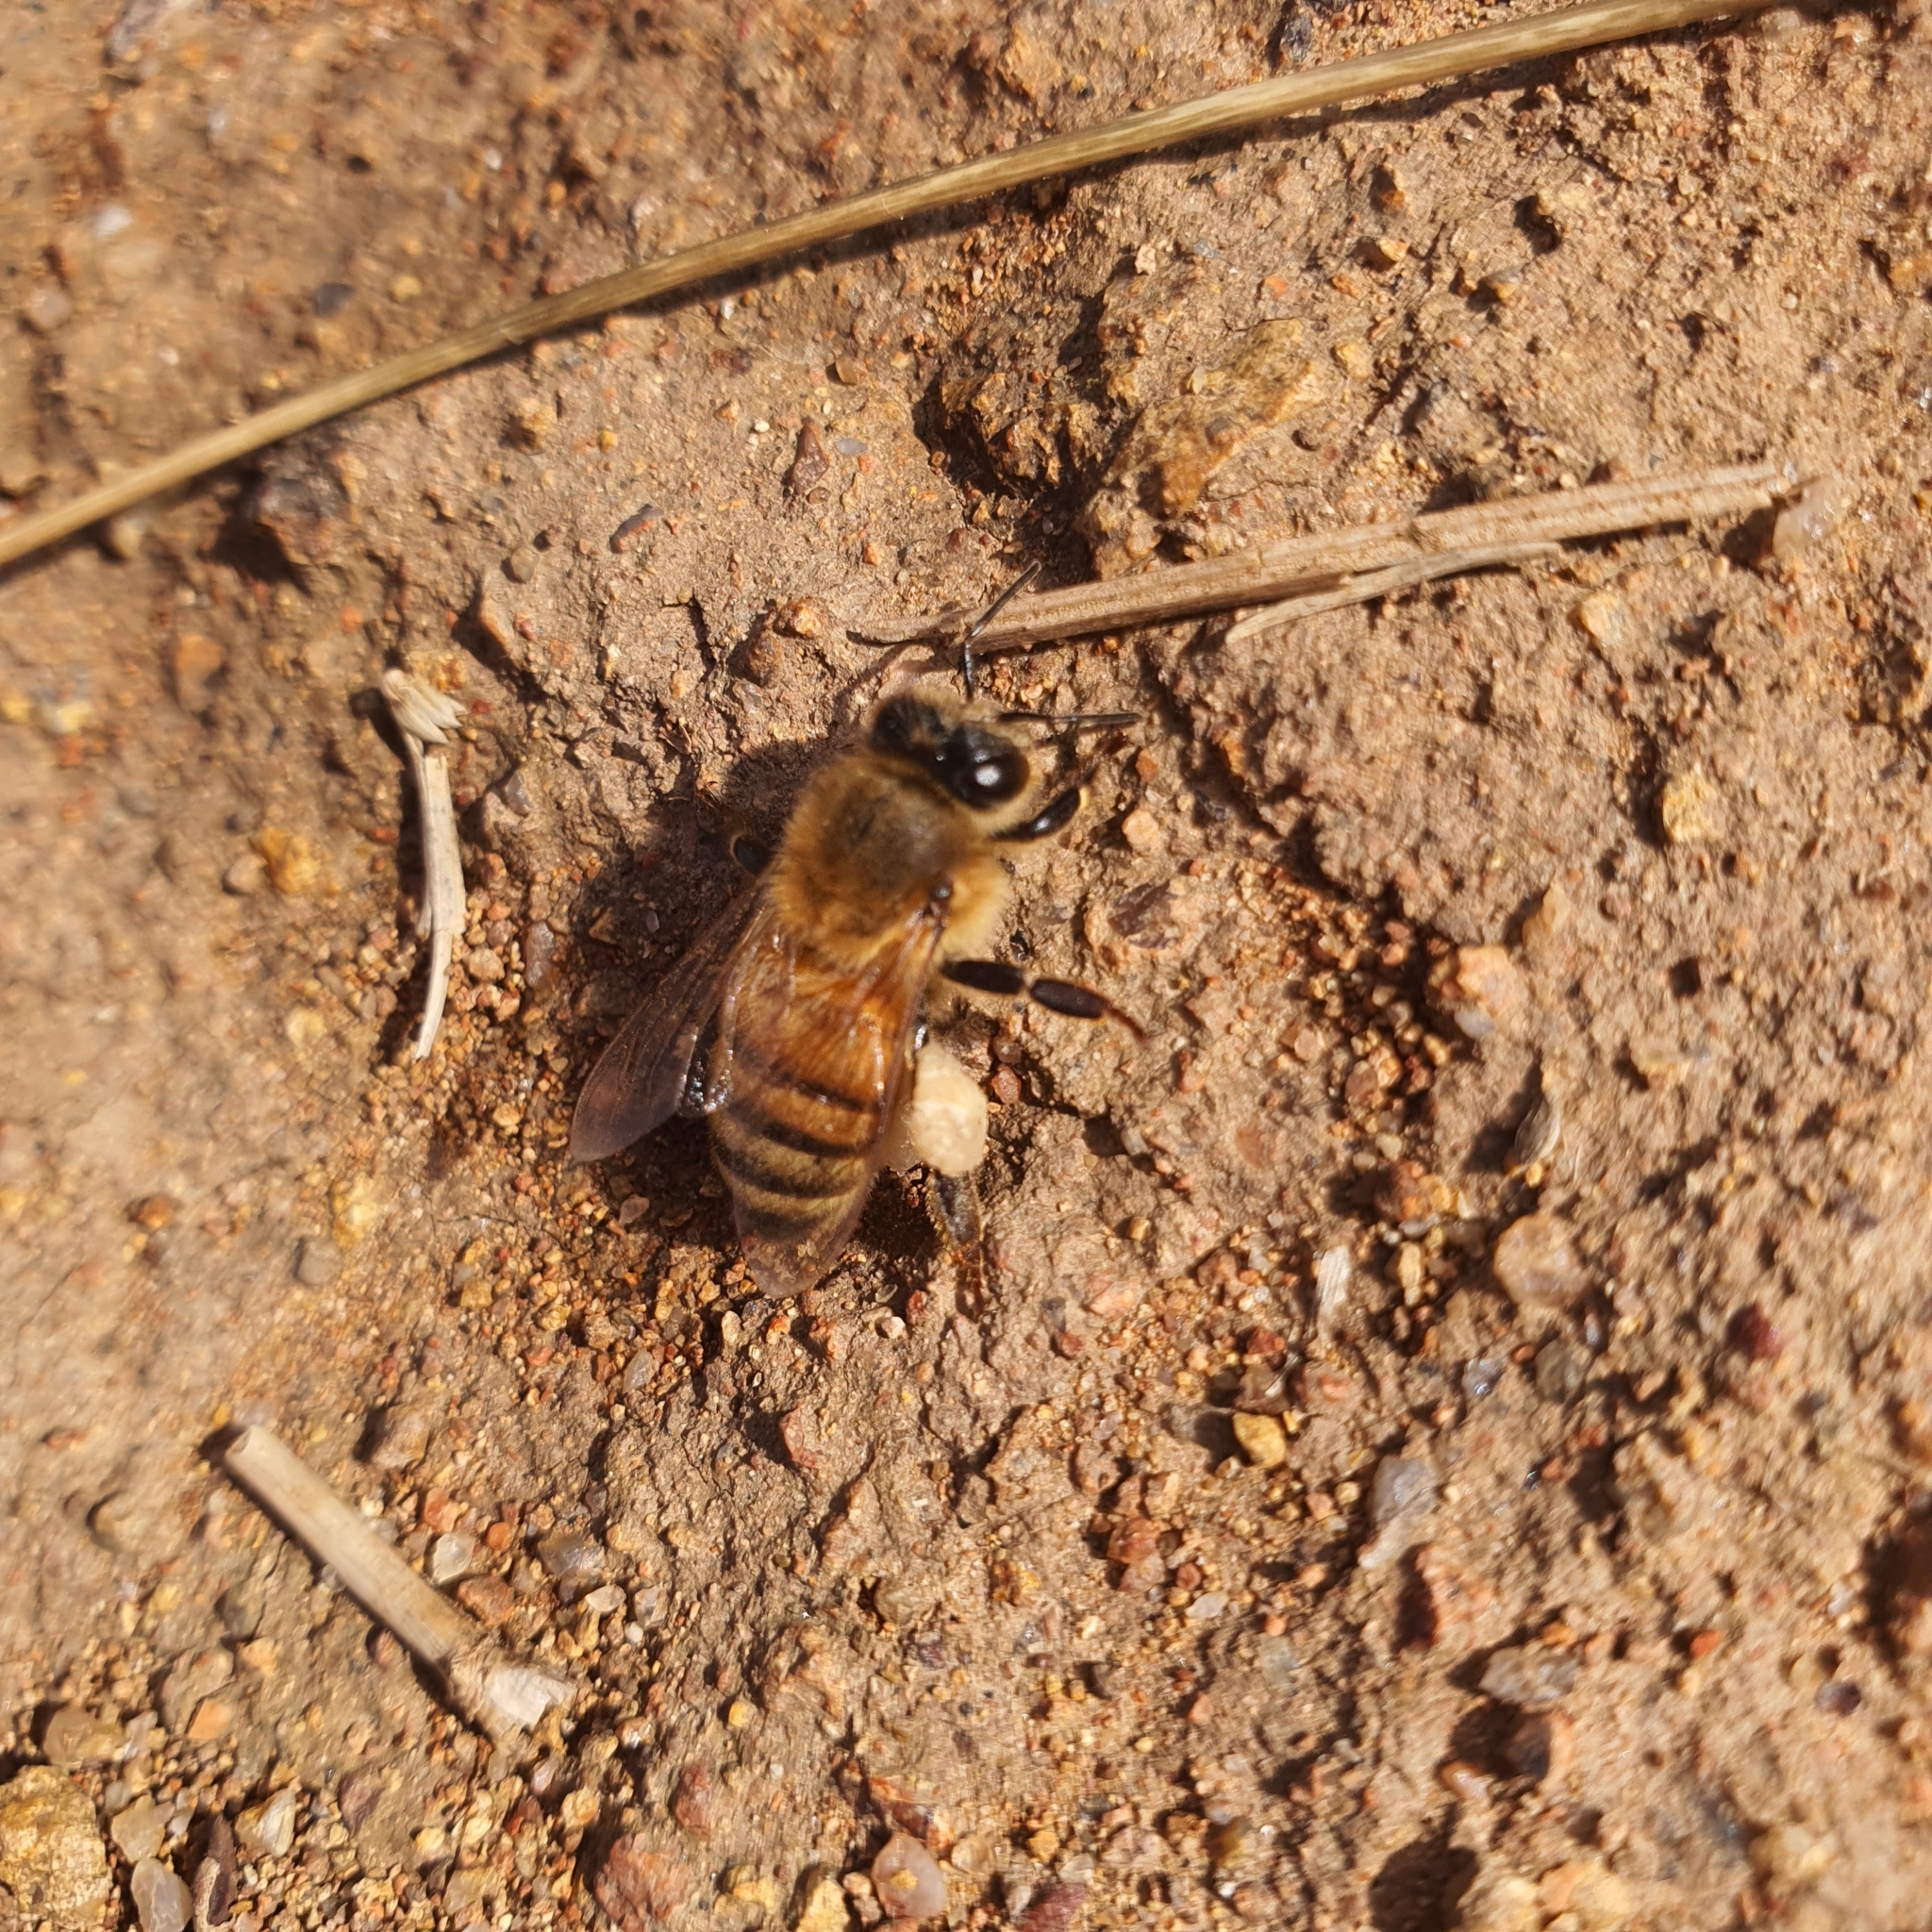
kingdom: Animalia
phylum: Arthropoda
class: Insecta
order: Hymenoptera
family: Apidae
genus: Apis
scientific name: Apis mellifera
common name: Honey bee
